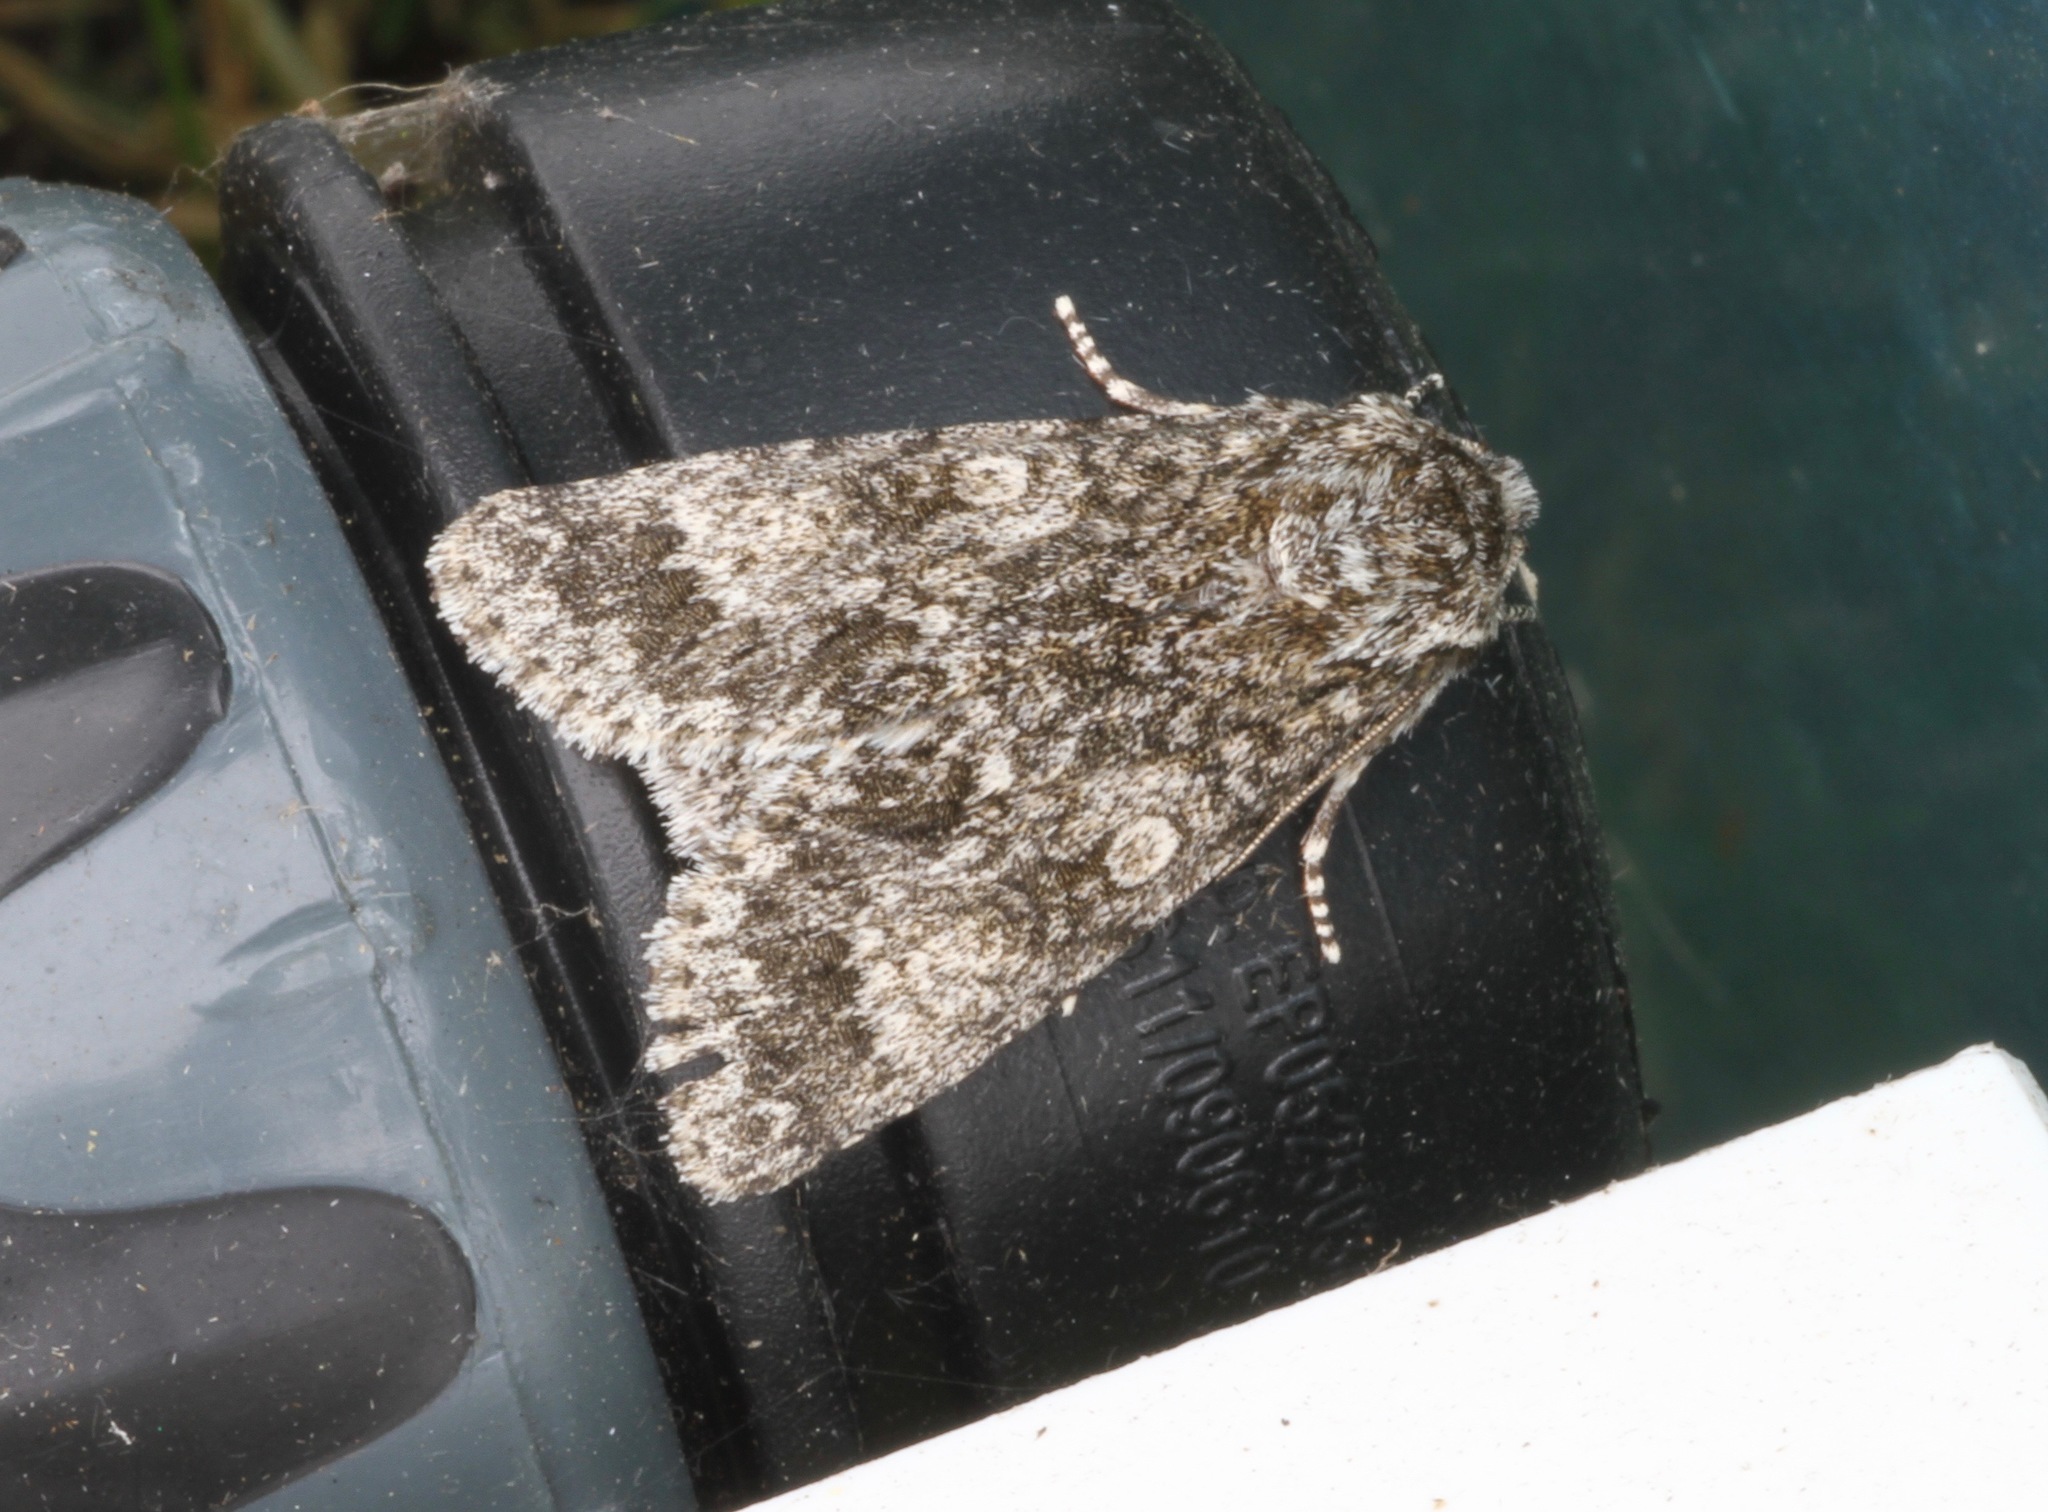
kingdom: Animalia
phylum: Arthropoda
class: Insecta
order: Lepidoptera
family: Noctuidae
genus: Acronicta
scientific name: Acronicta megacephala
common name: Poplar grey
